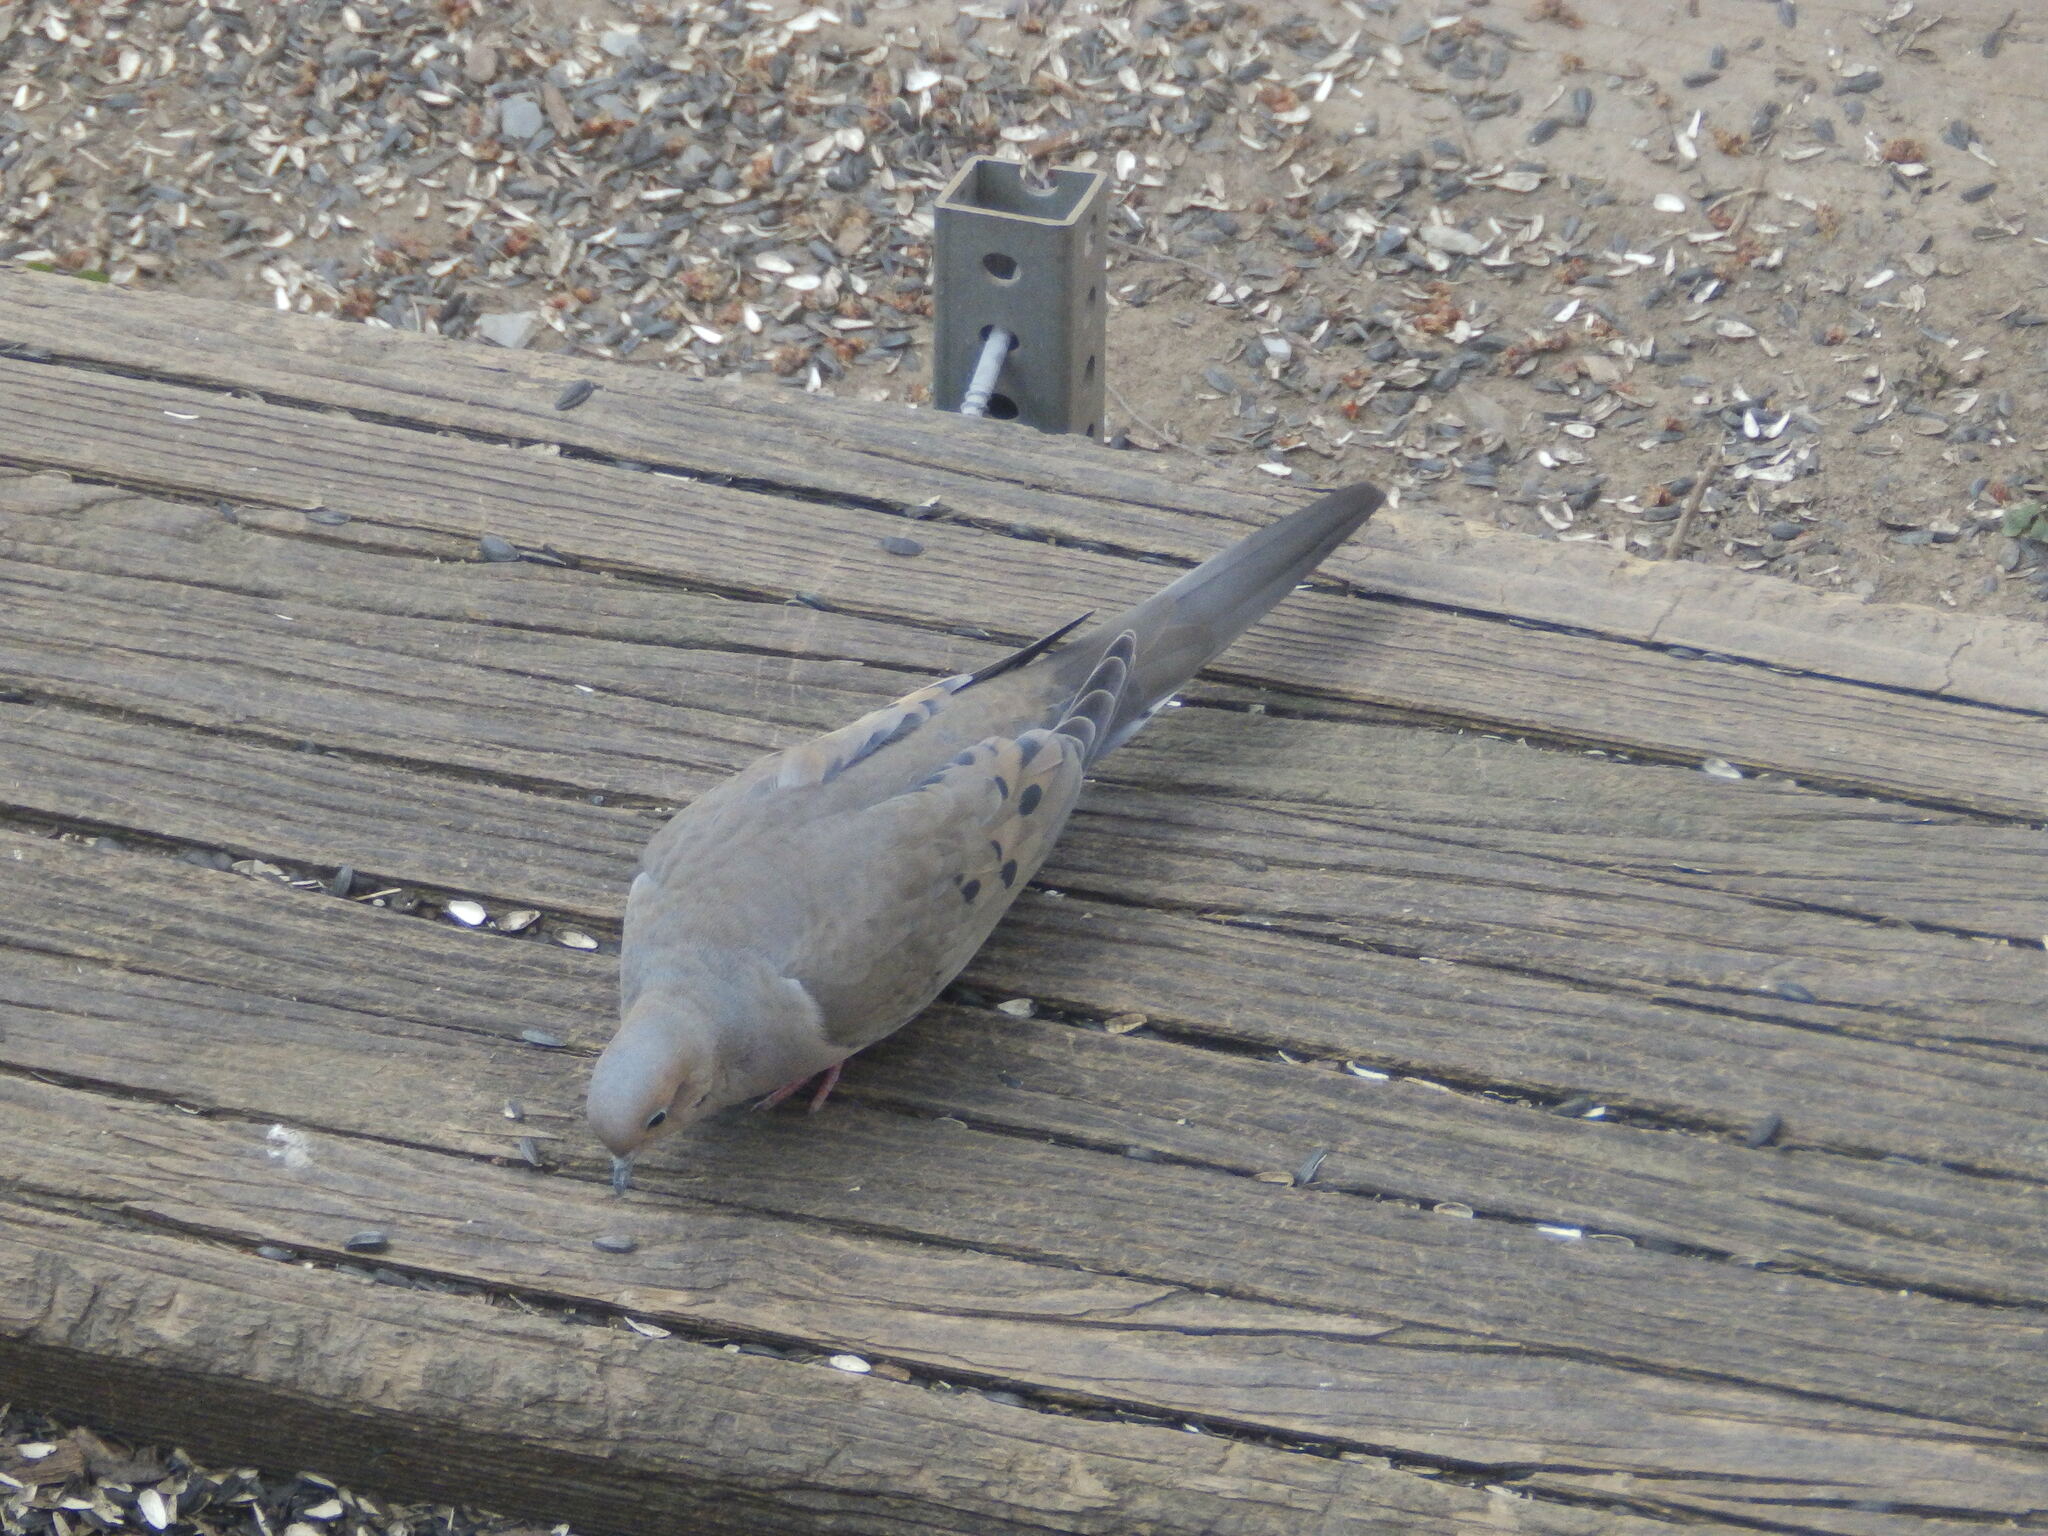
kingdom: Animalia
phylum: Chordata
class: Aves
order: Columbiformes
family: Columbidae
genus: Zenaida
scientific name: Zenaida macroura
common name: Mourning dove
